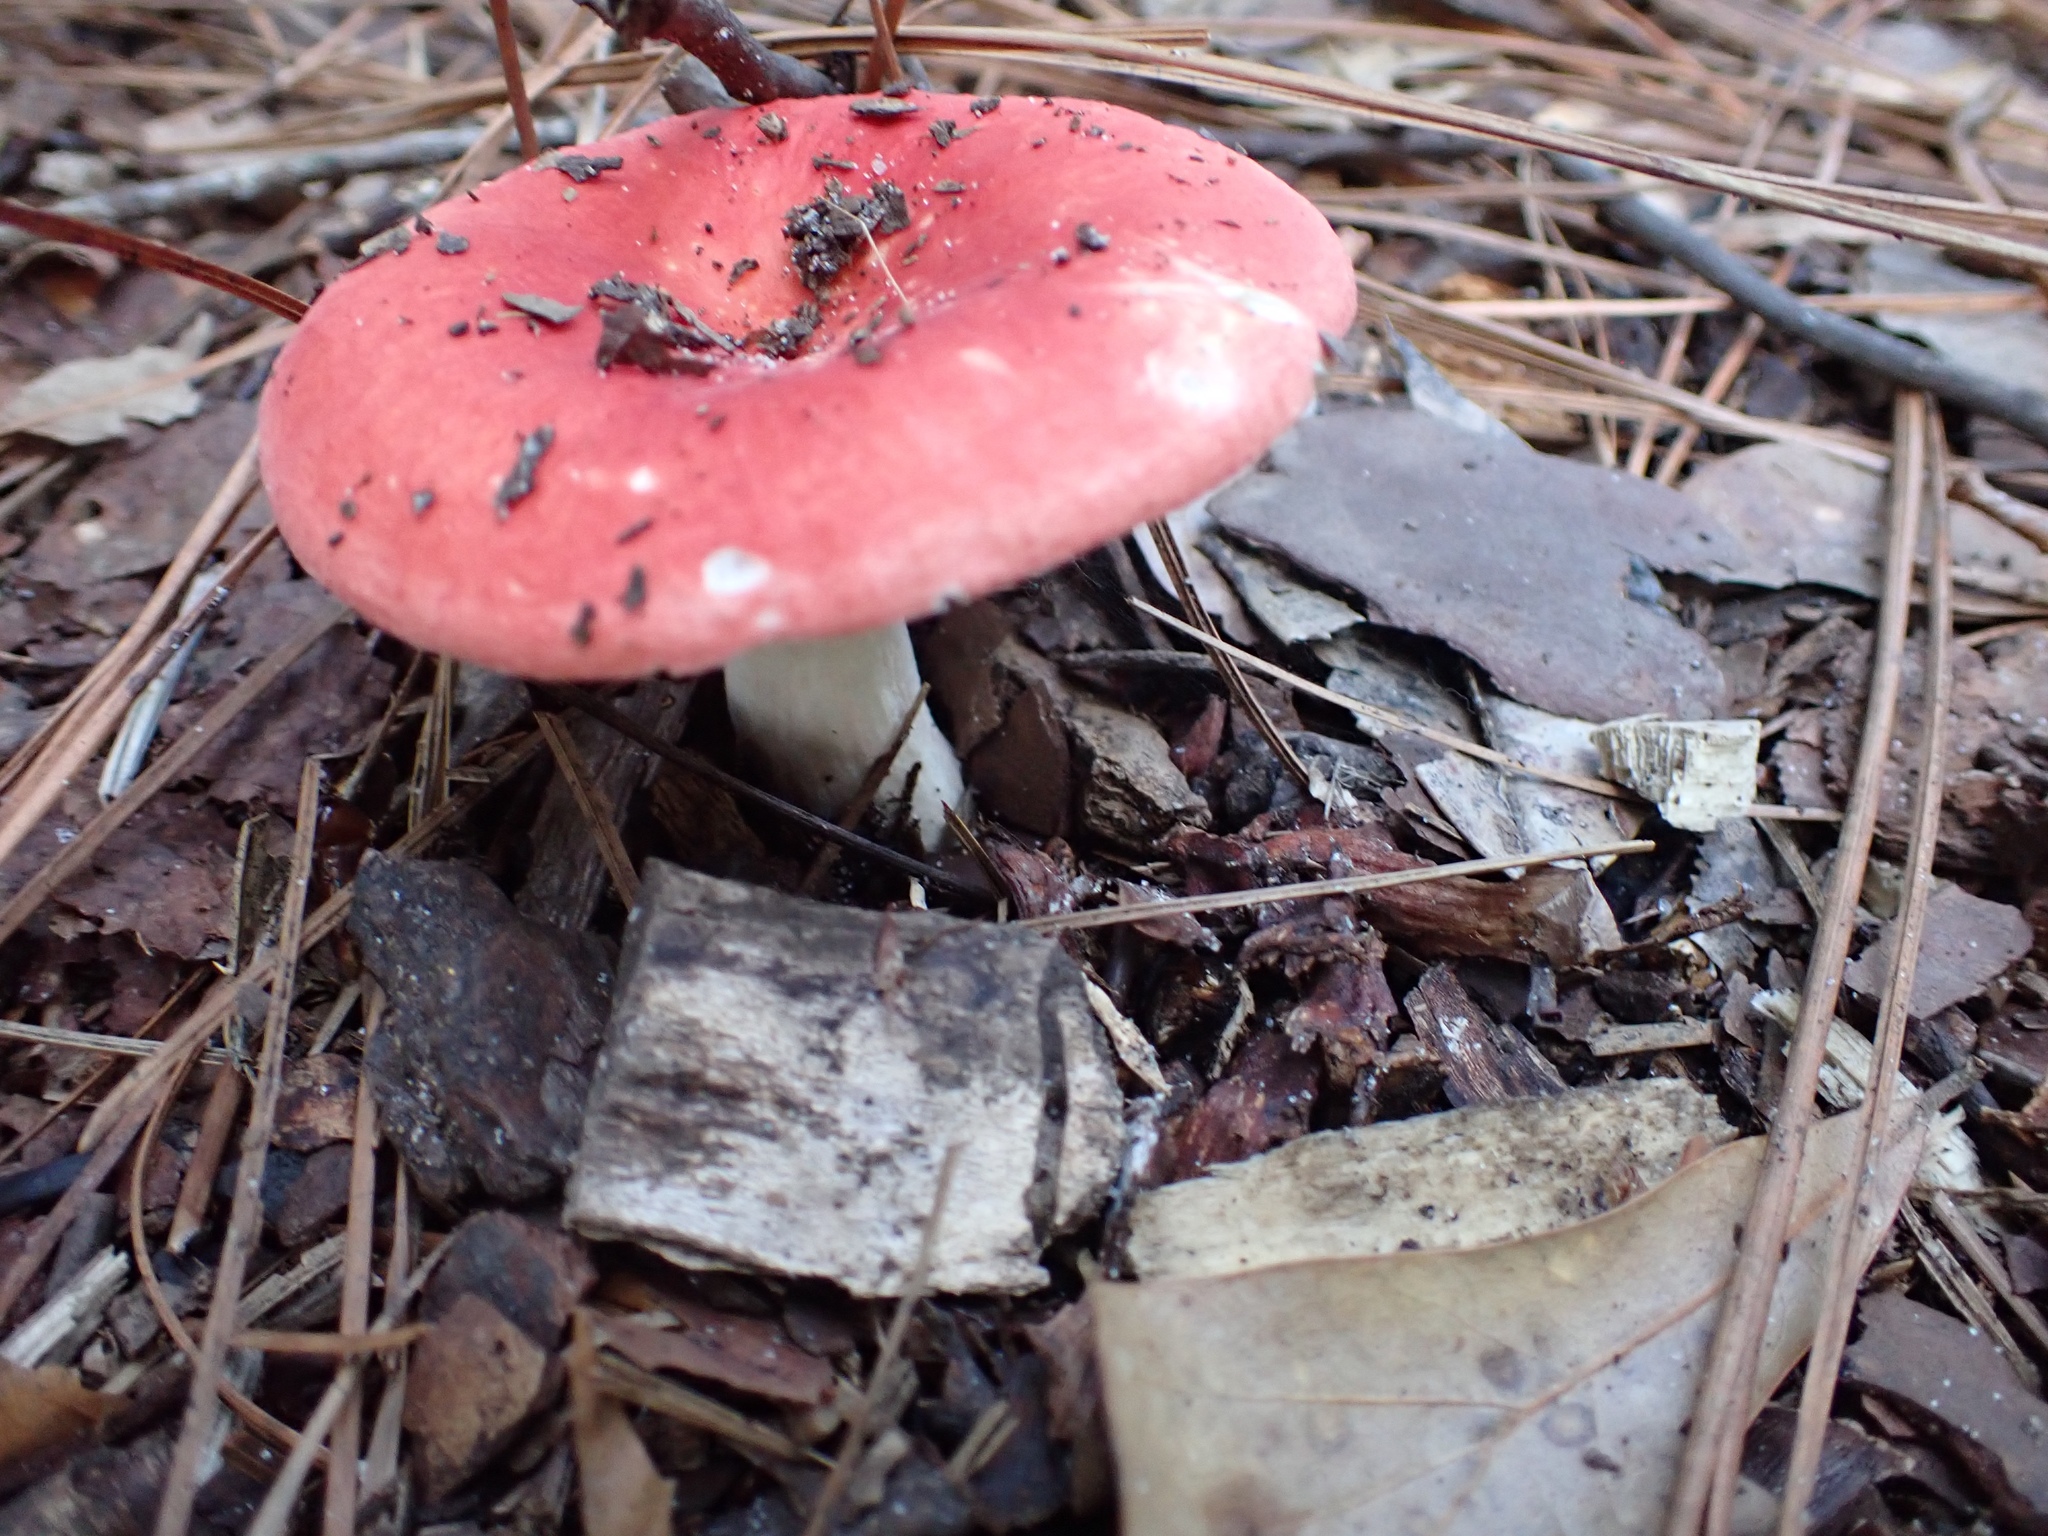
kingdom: Fungi
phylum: Basidiomycota
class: Agaricomycetes
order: Russulales
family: Russulaceae
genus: Russula
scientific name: Russula
